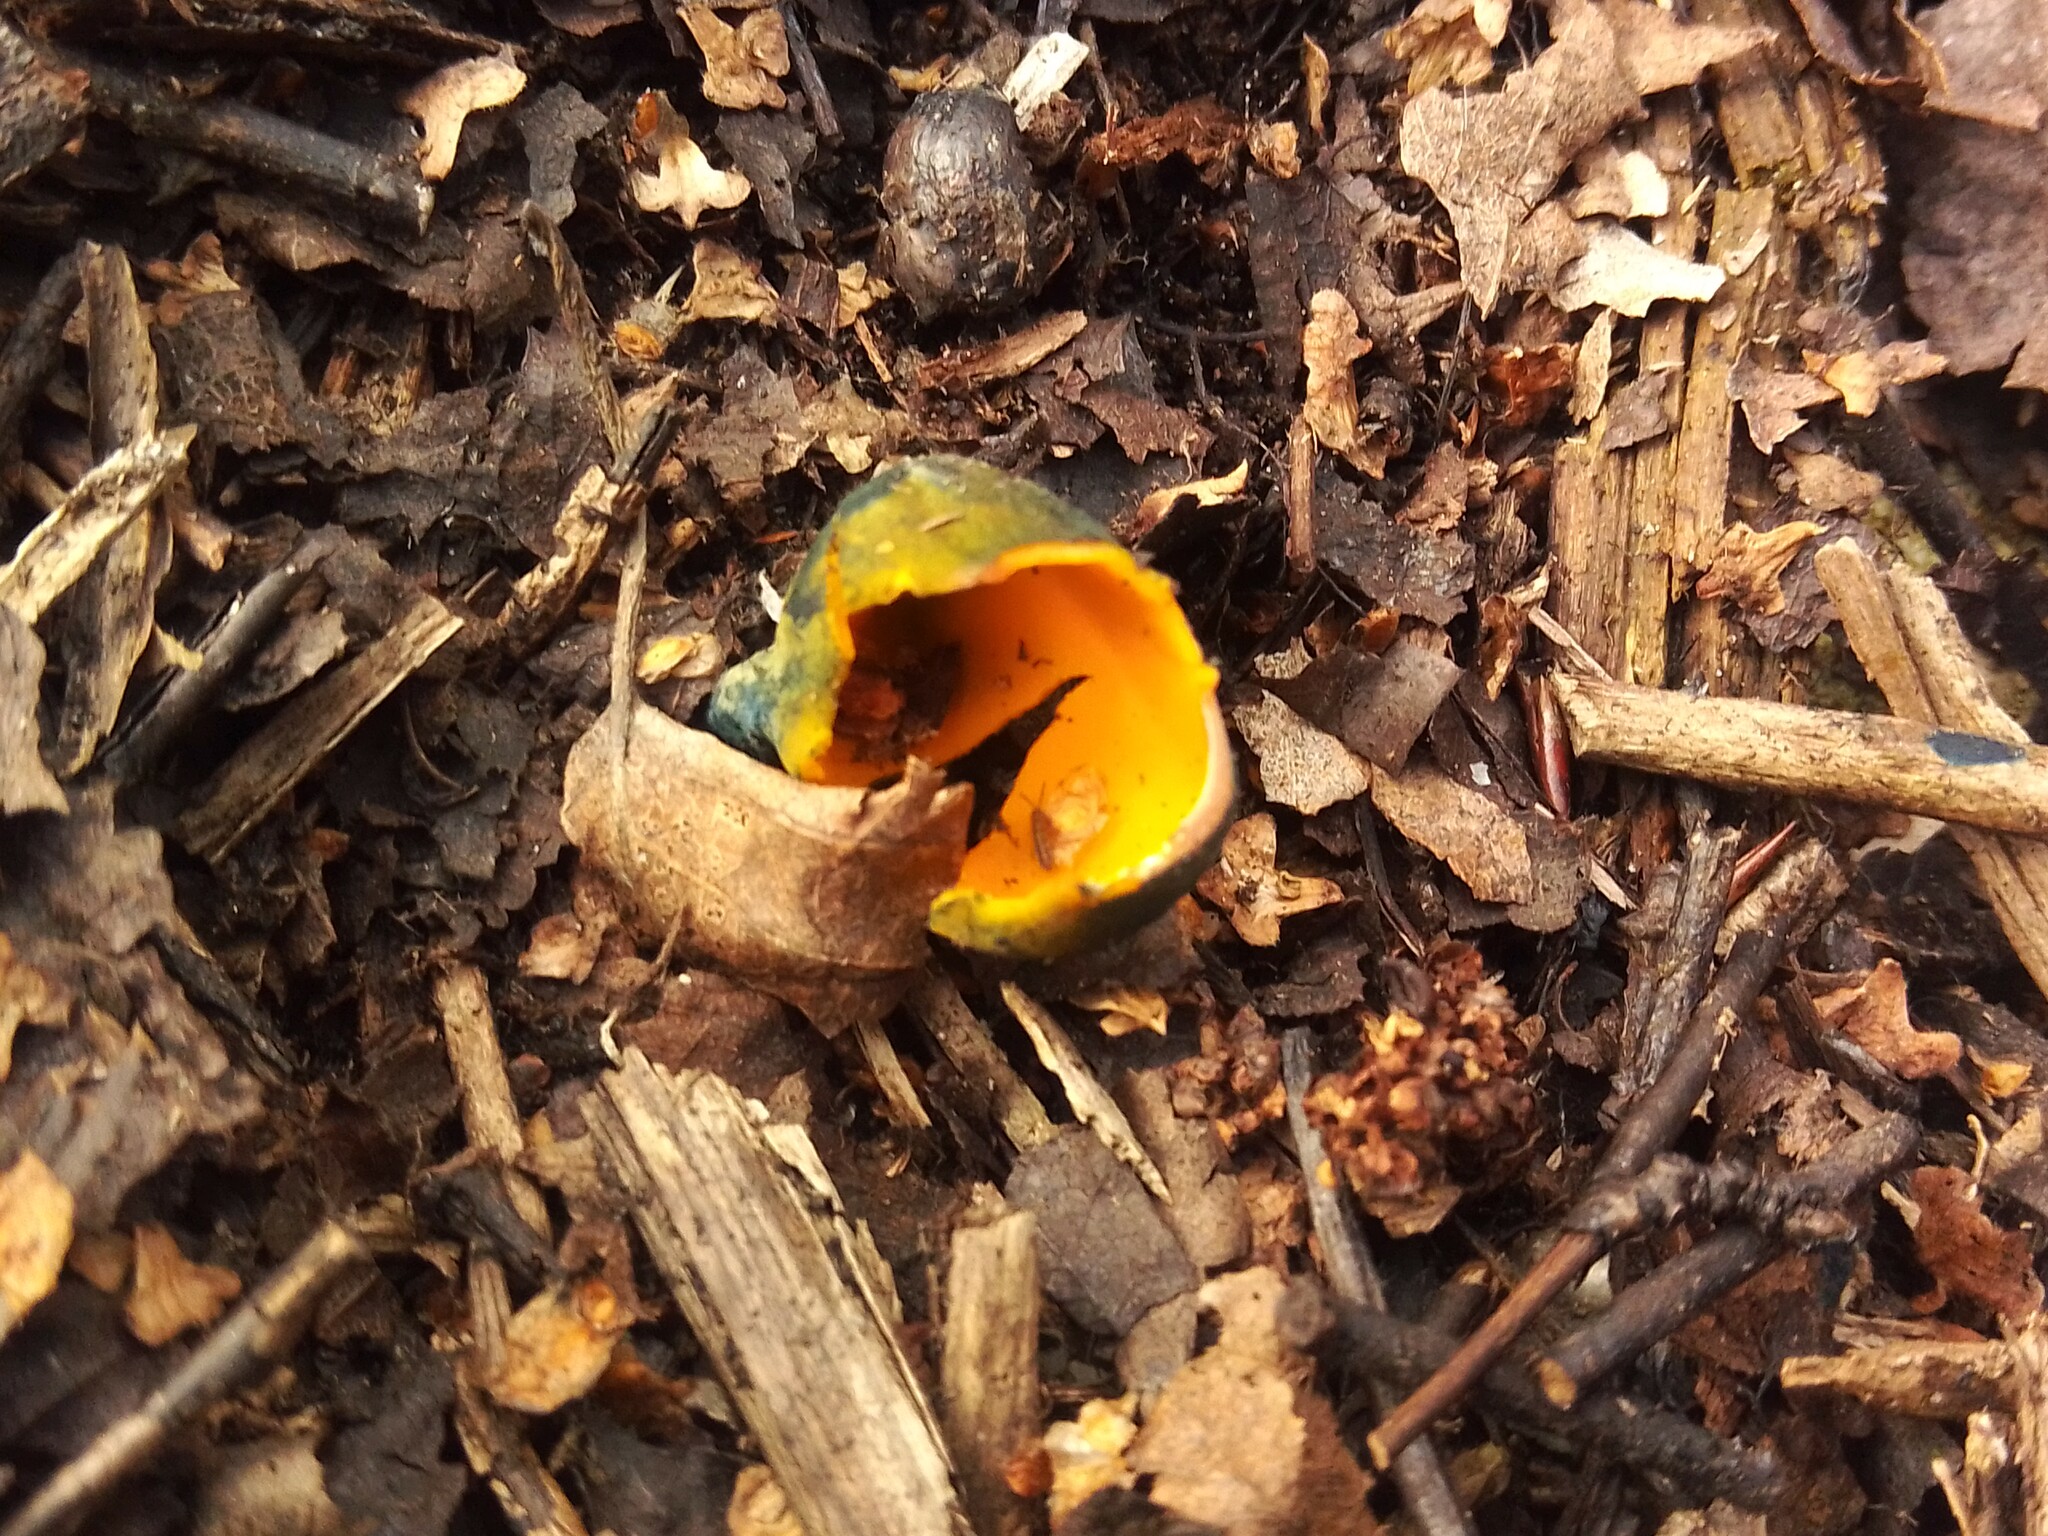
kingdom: Fungi
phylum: Ascomycota
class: Pezizomycetes
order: Pezizales
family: Caloscyphaceae
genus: Caloscypha
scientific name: Caloscypha fulgens
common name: Golden cup
